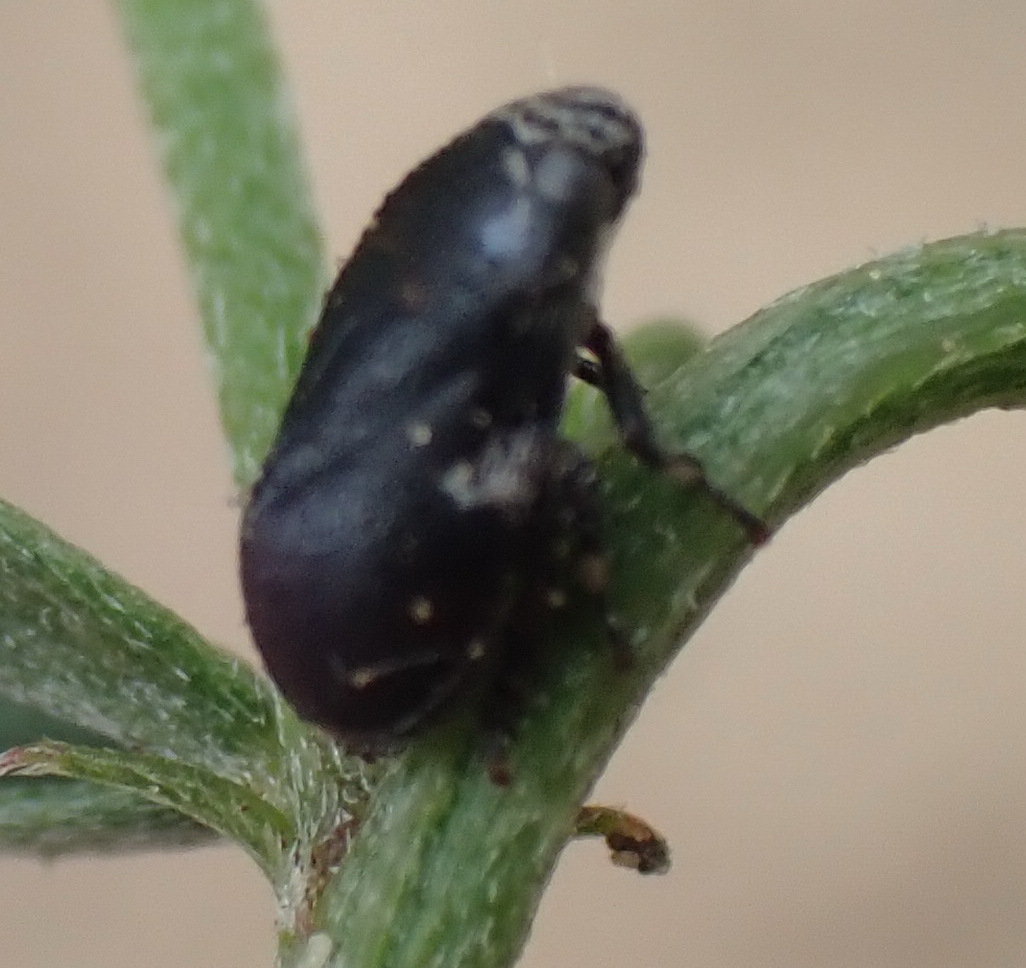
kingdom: Animalia
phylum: Arthropoda
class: Insecta
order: Hemiptera
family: Cicadellidae
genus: Penthimia
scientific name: Penthimia nitens
